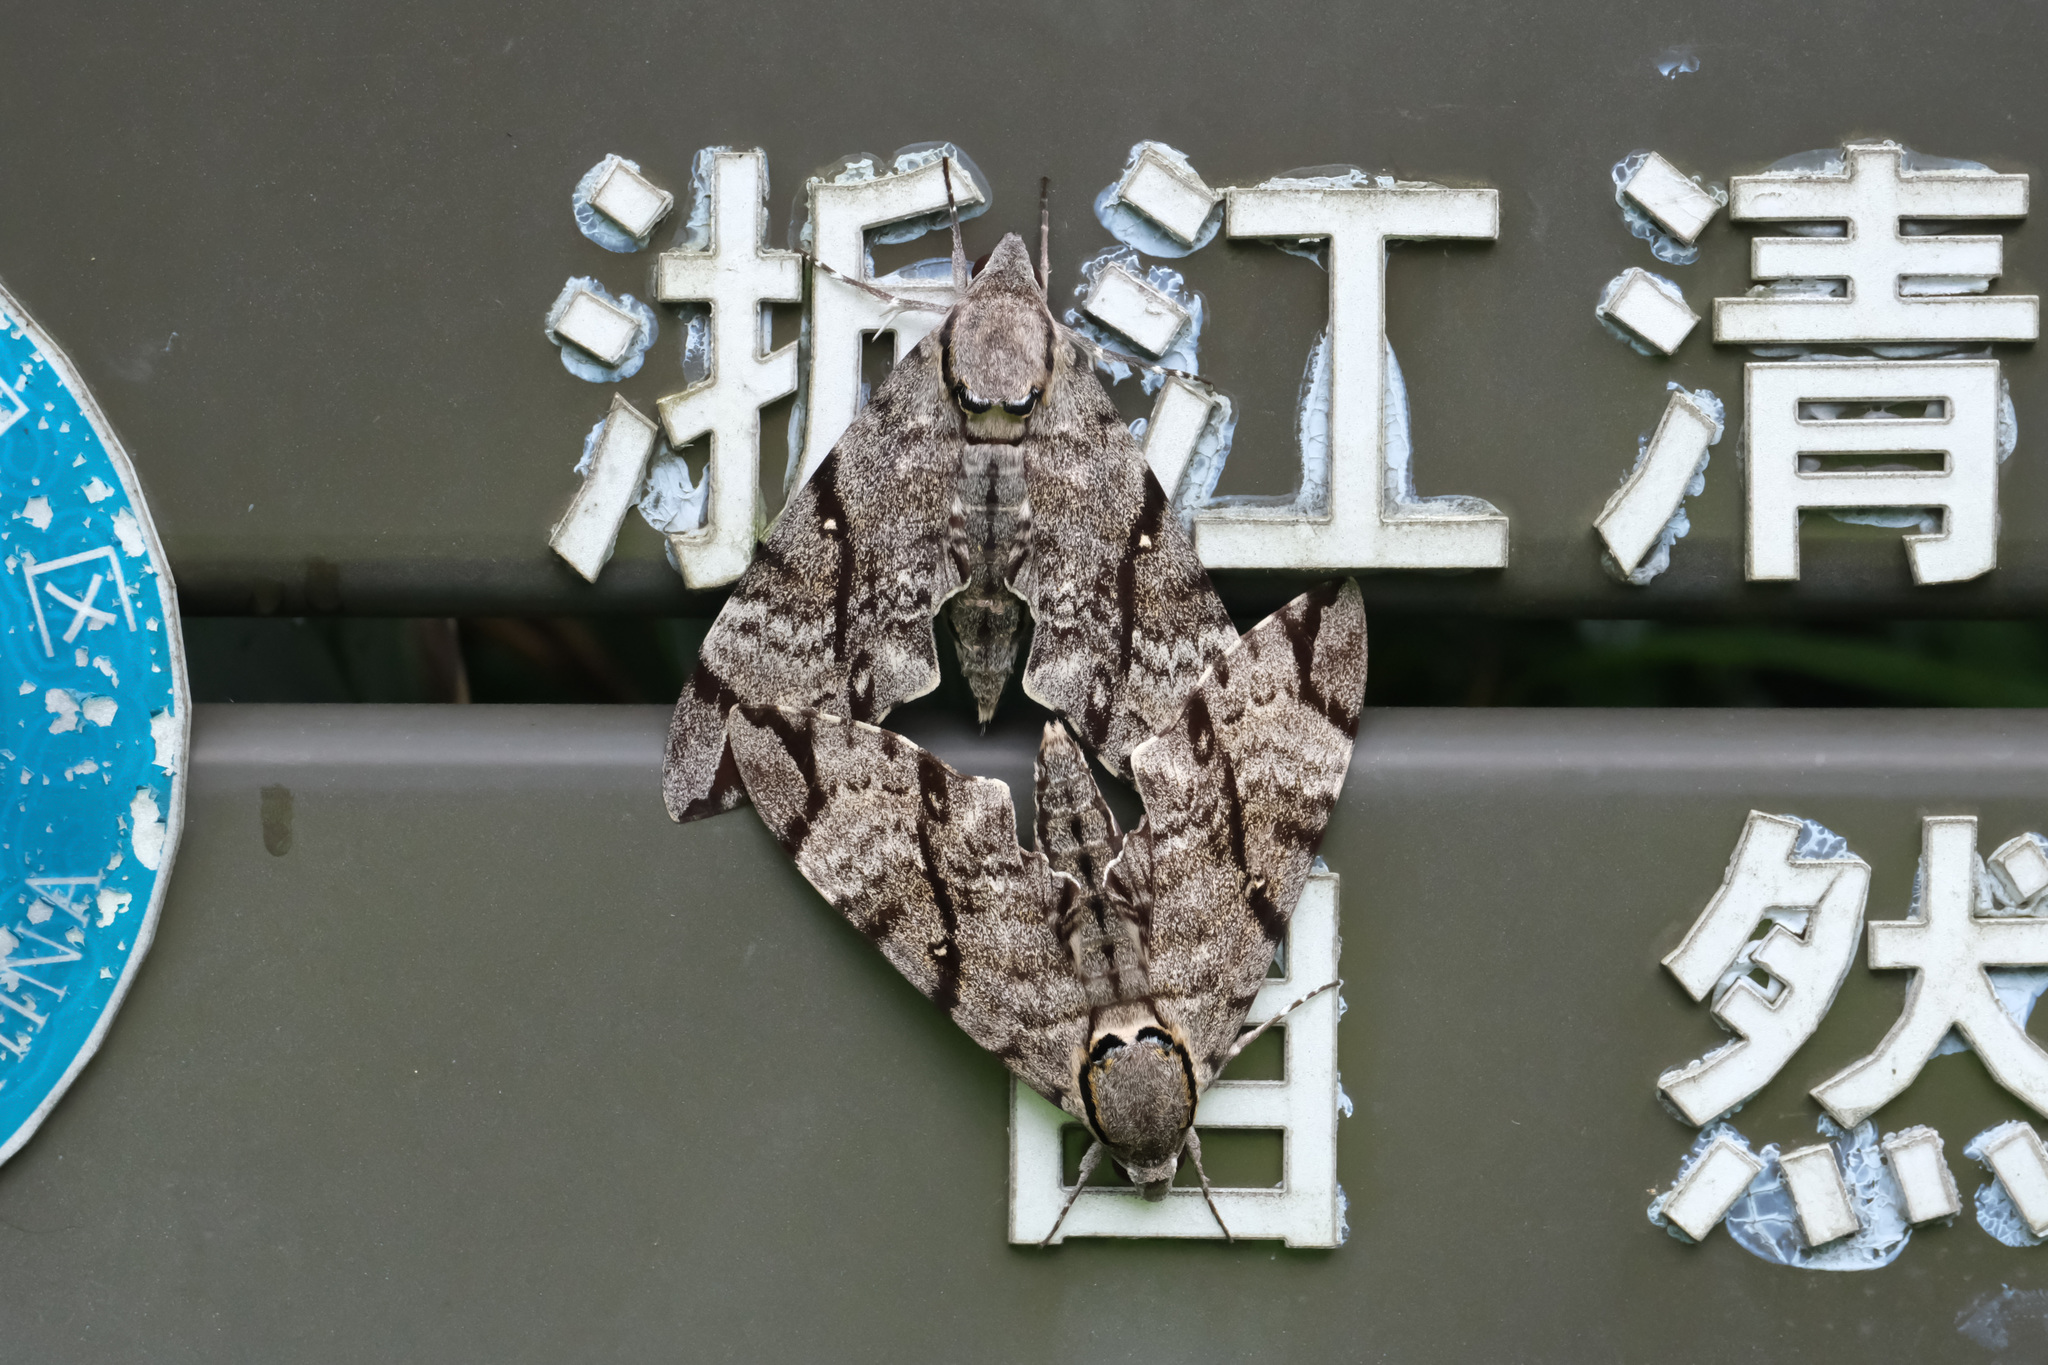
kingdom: Animalia
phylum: Arthropoda
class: Insecta
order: Lepidoptera
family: Sphingidae
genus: Notonagemia
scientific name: Notonagemia analis
